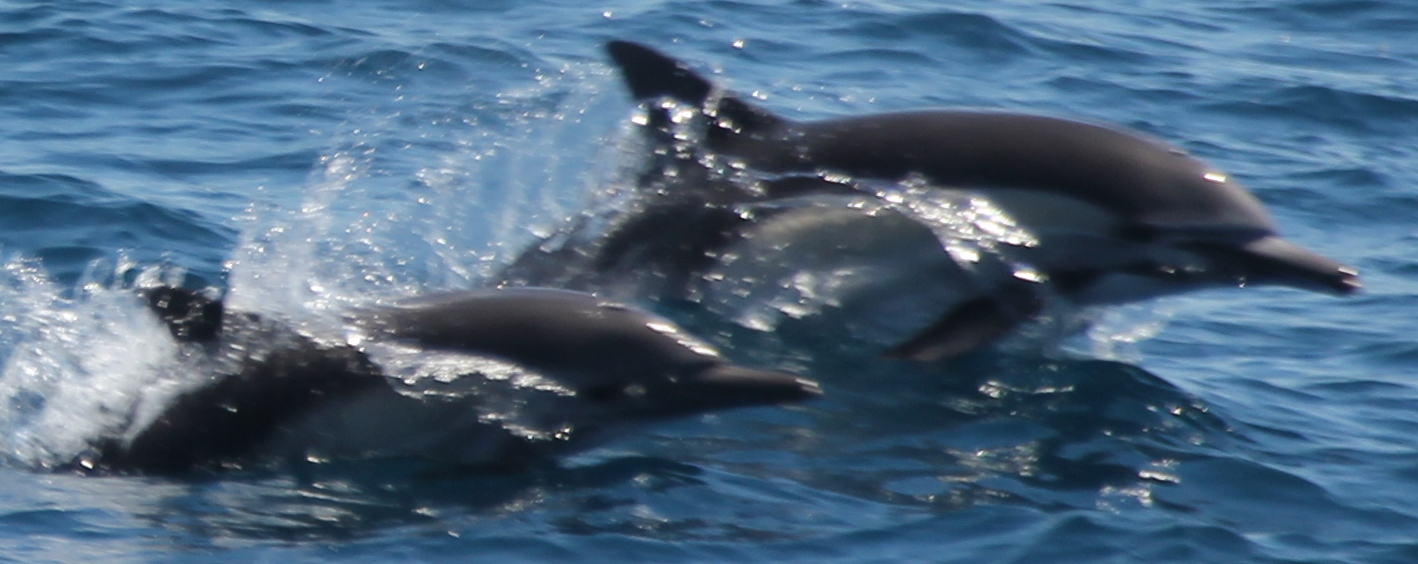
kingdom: Animalia
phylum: Chordata
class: Mammalia
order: Cetacea
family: Delphinidae
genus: Delphinus
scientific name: Delphinus delphis
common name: Common dolphin
